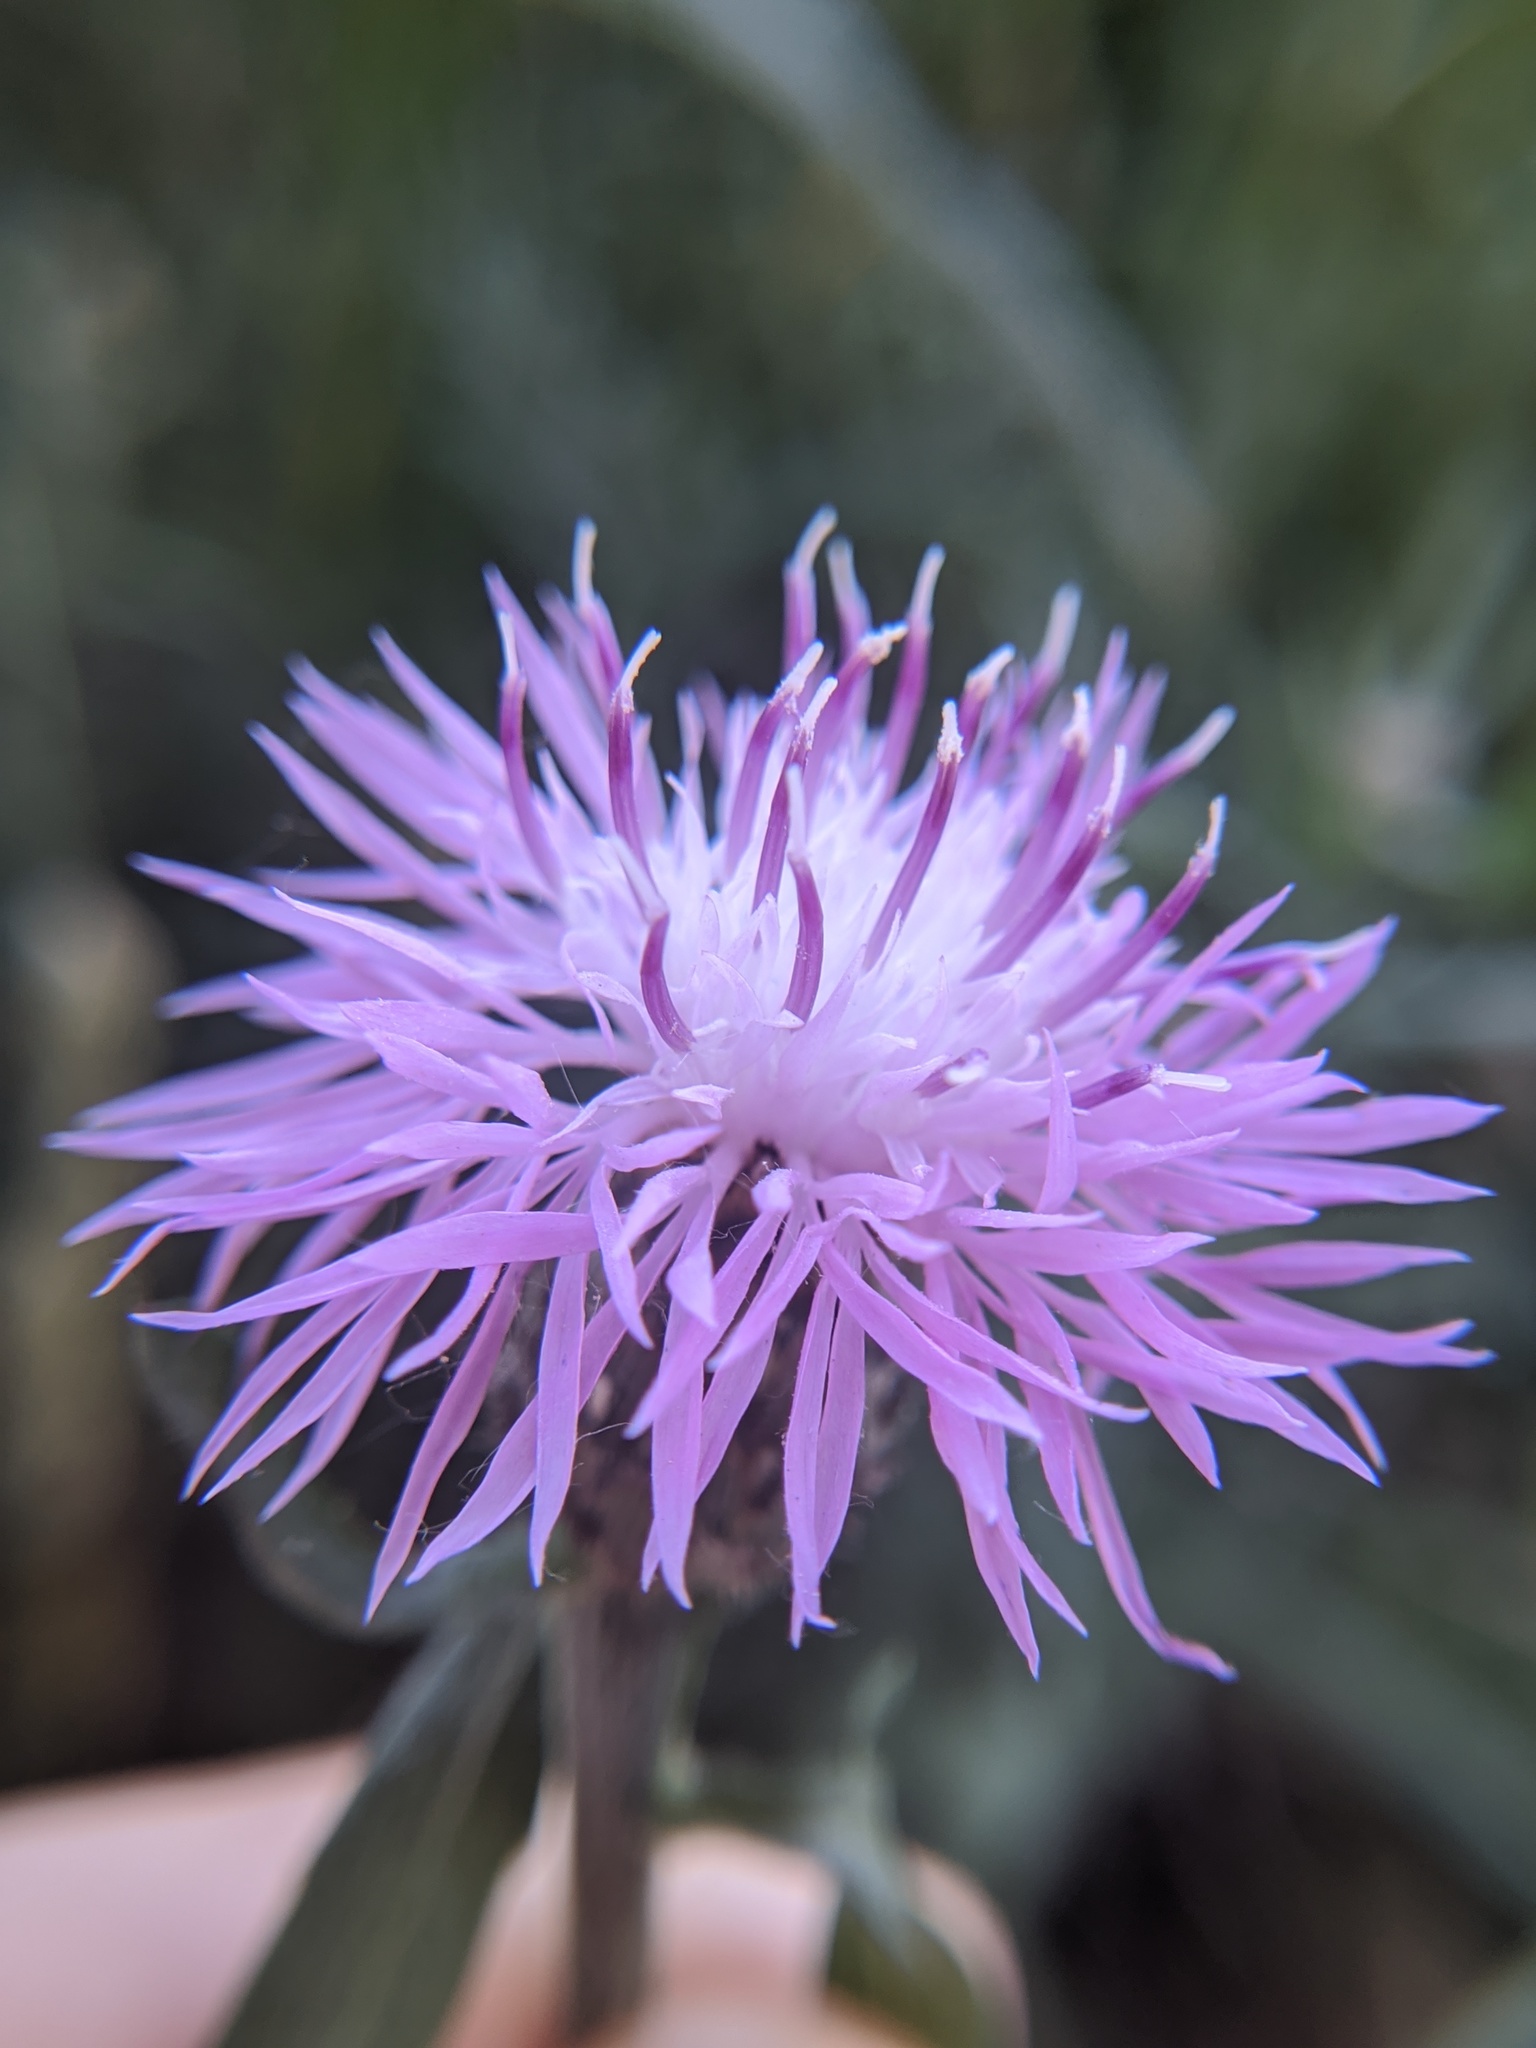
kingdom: Plantae
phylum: Tracheophyta
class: Magnoliopsida
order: Asterales
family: Asteraceae
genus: Centaurea
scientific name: Centaurea stoebe
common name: Spotted knapweed
